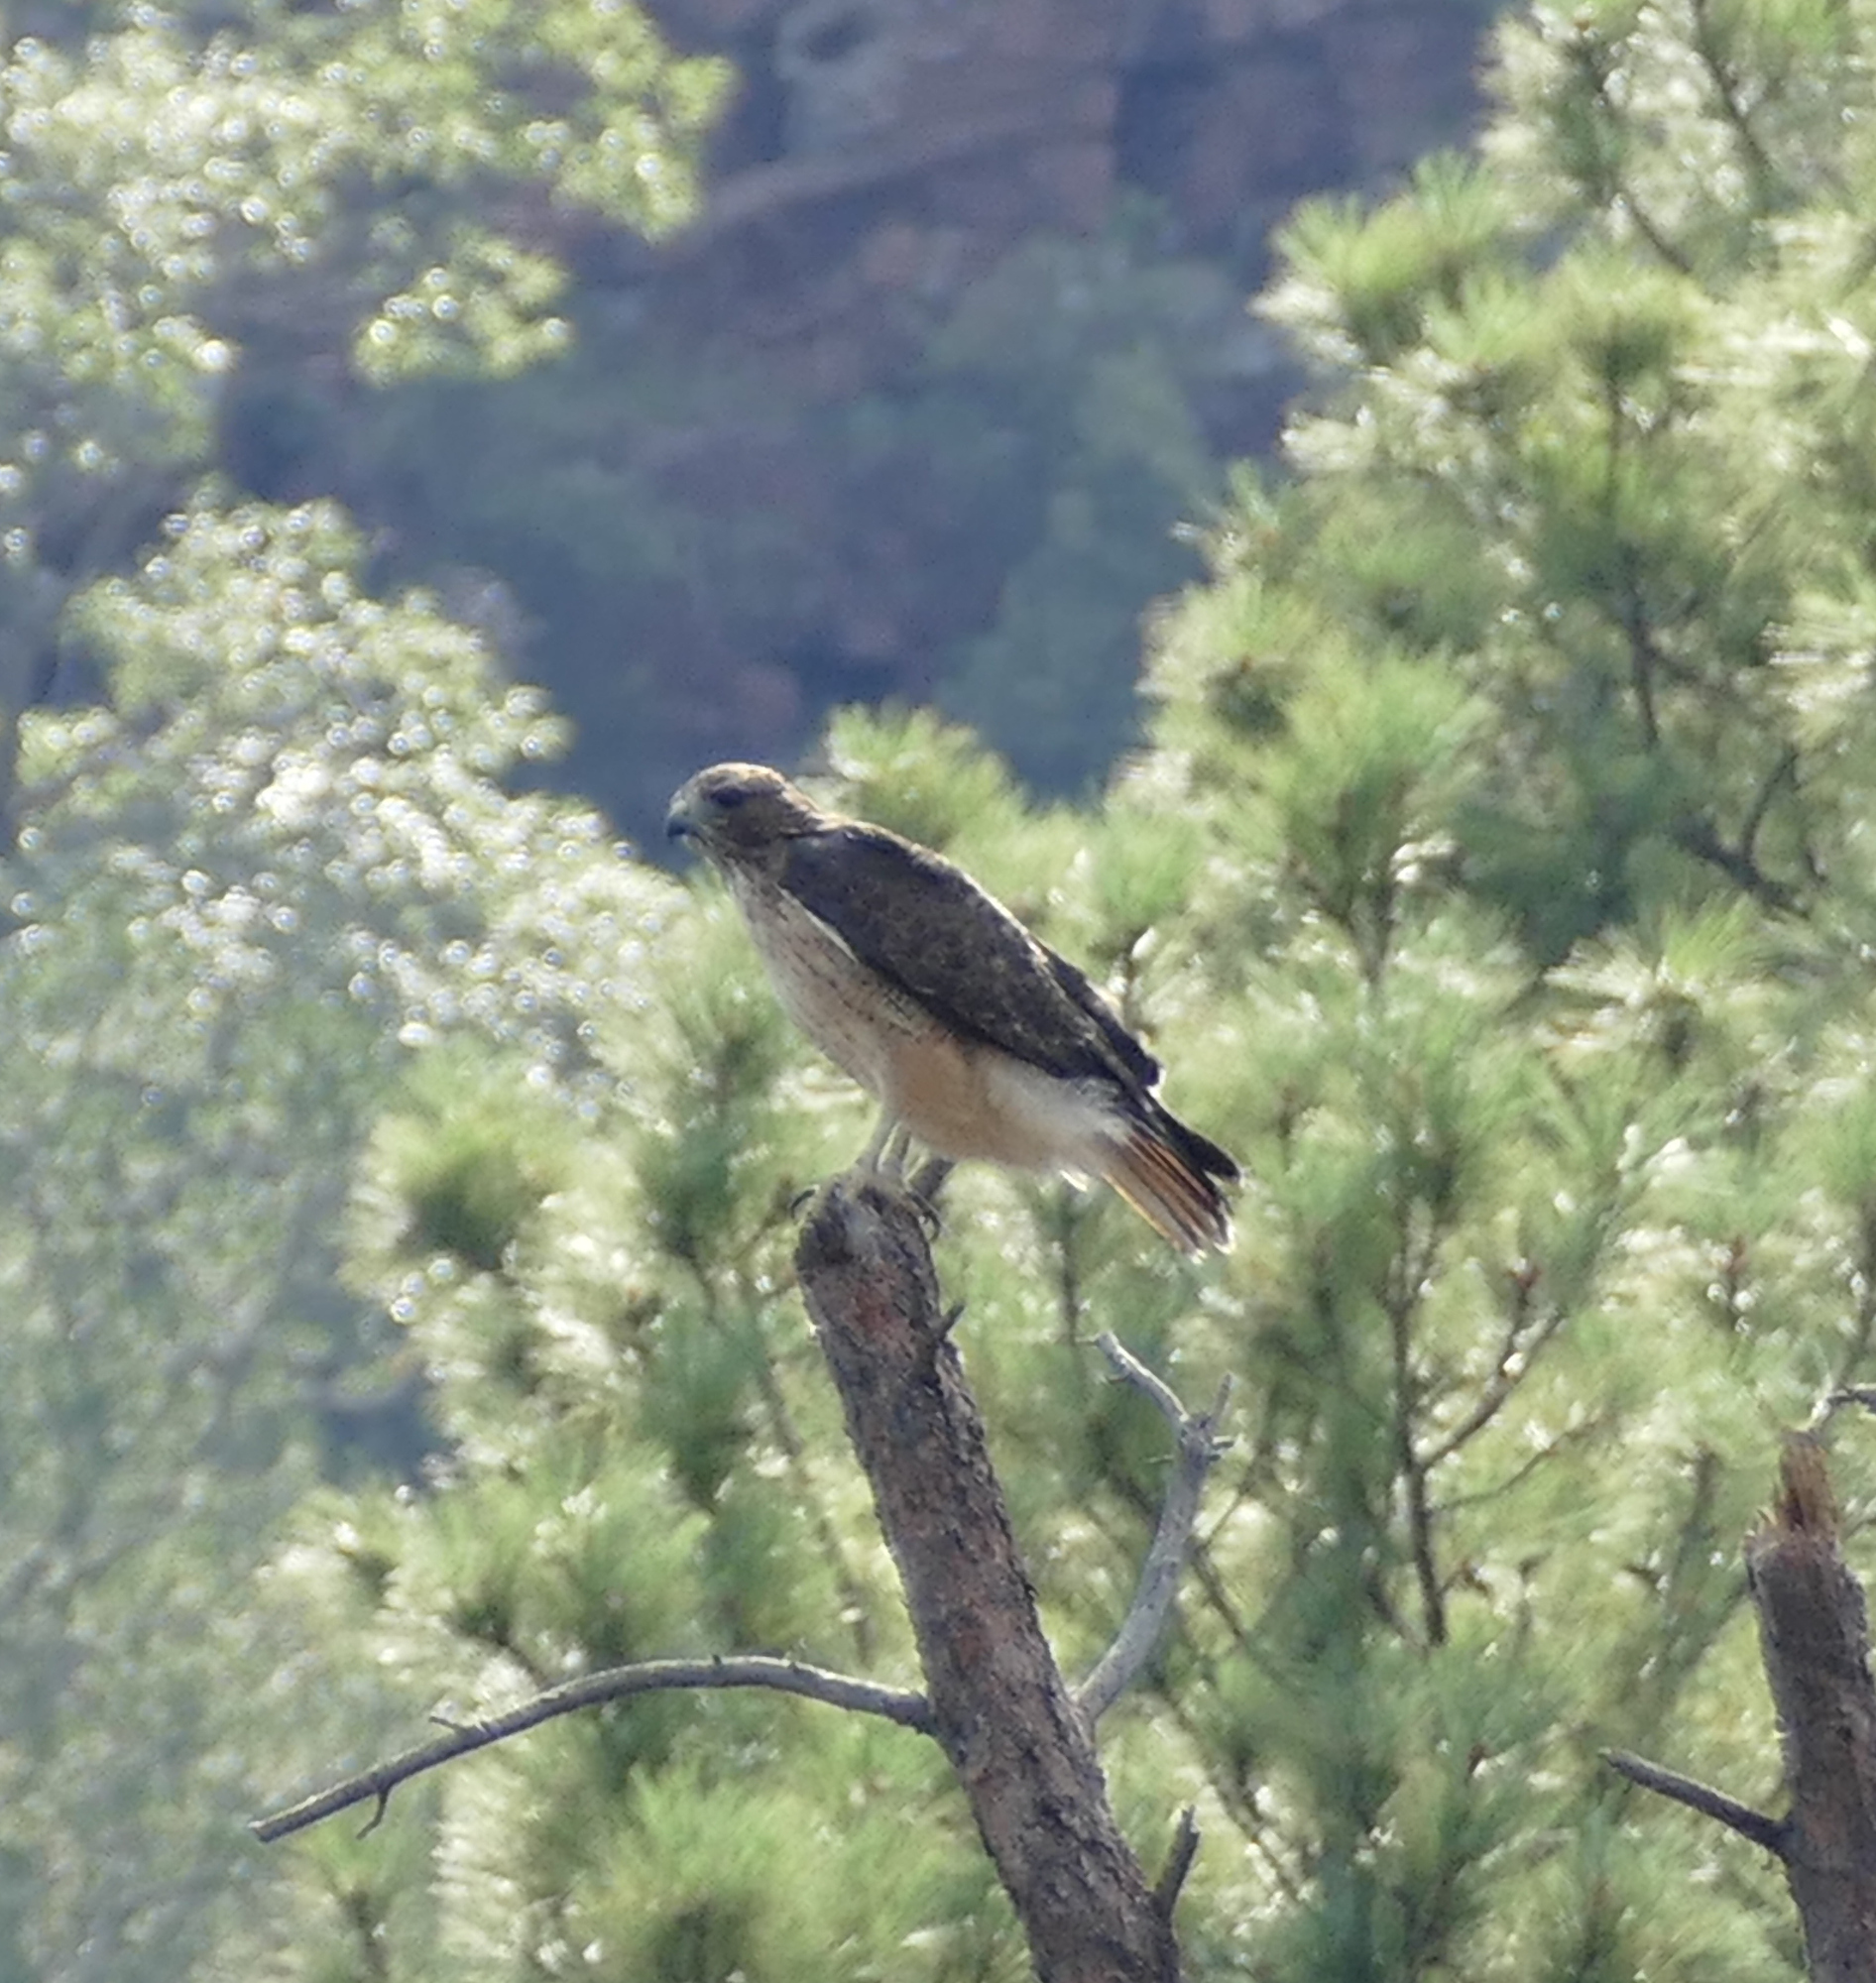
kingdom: Animalia
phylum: Chordata
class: Aves
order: Accipitriformes
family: Accipitridae
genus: Buteo
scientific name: Buteo jamaicensis
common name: Red-tailed hawk
